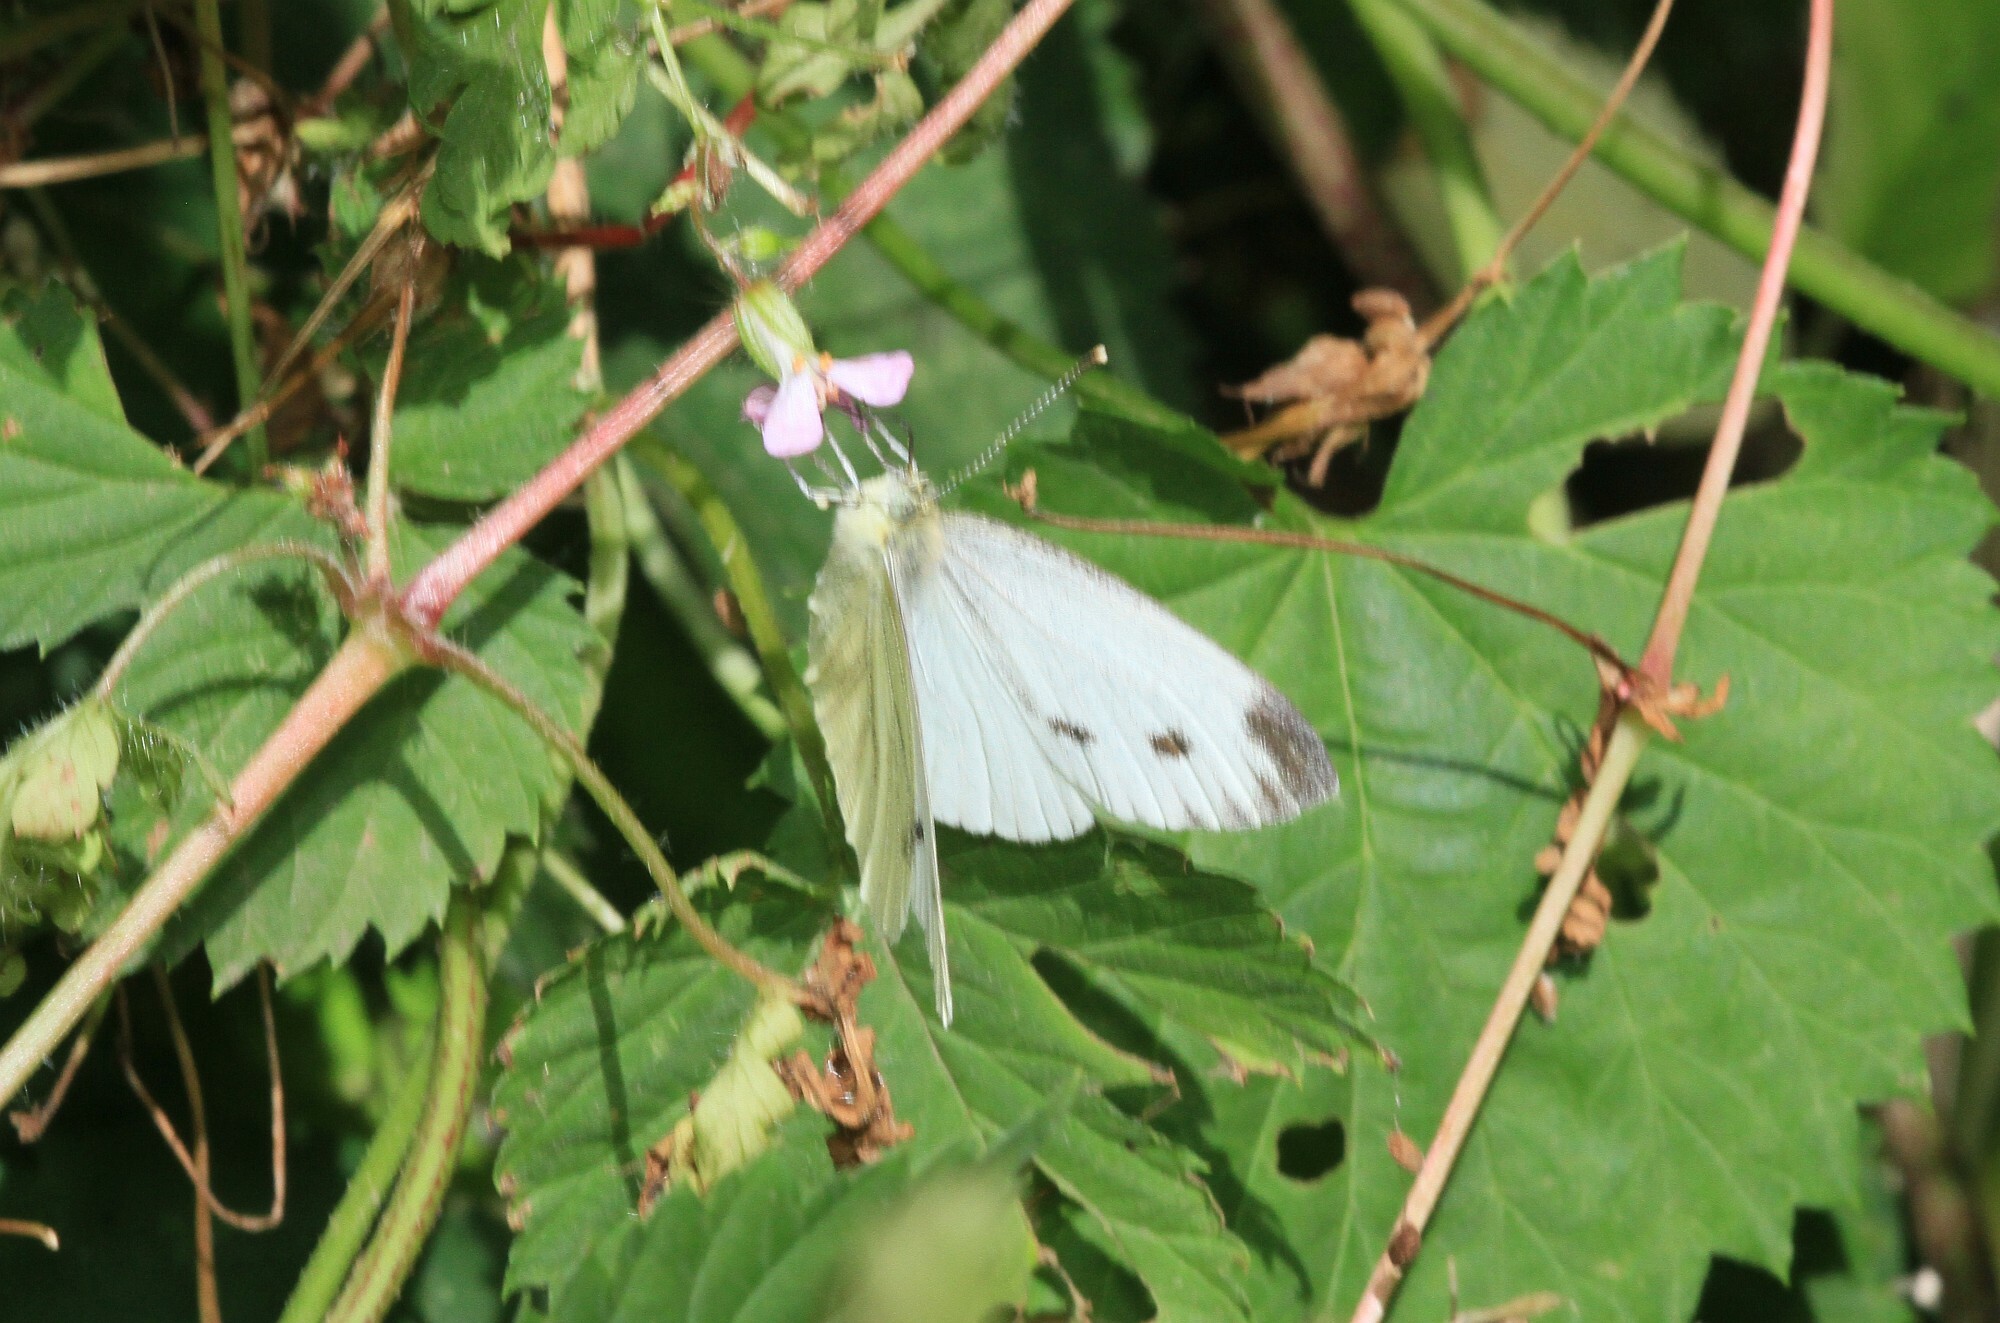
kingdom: Animalia
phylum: Arthropoda
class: Insecta
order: Lepidoptera
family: Pieridae
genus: Pieris
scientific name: Pieris napi
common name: Green-veined white
